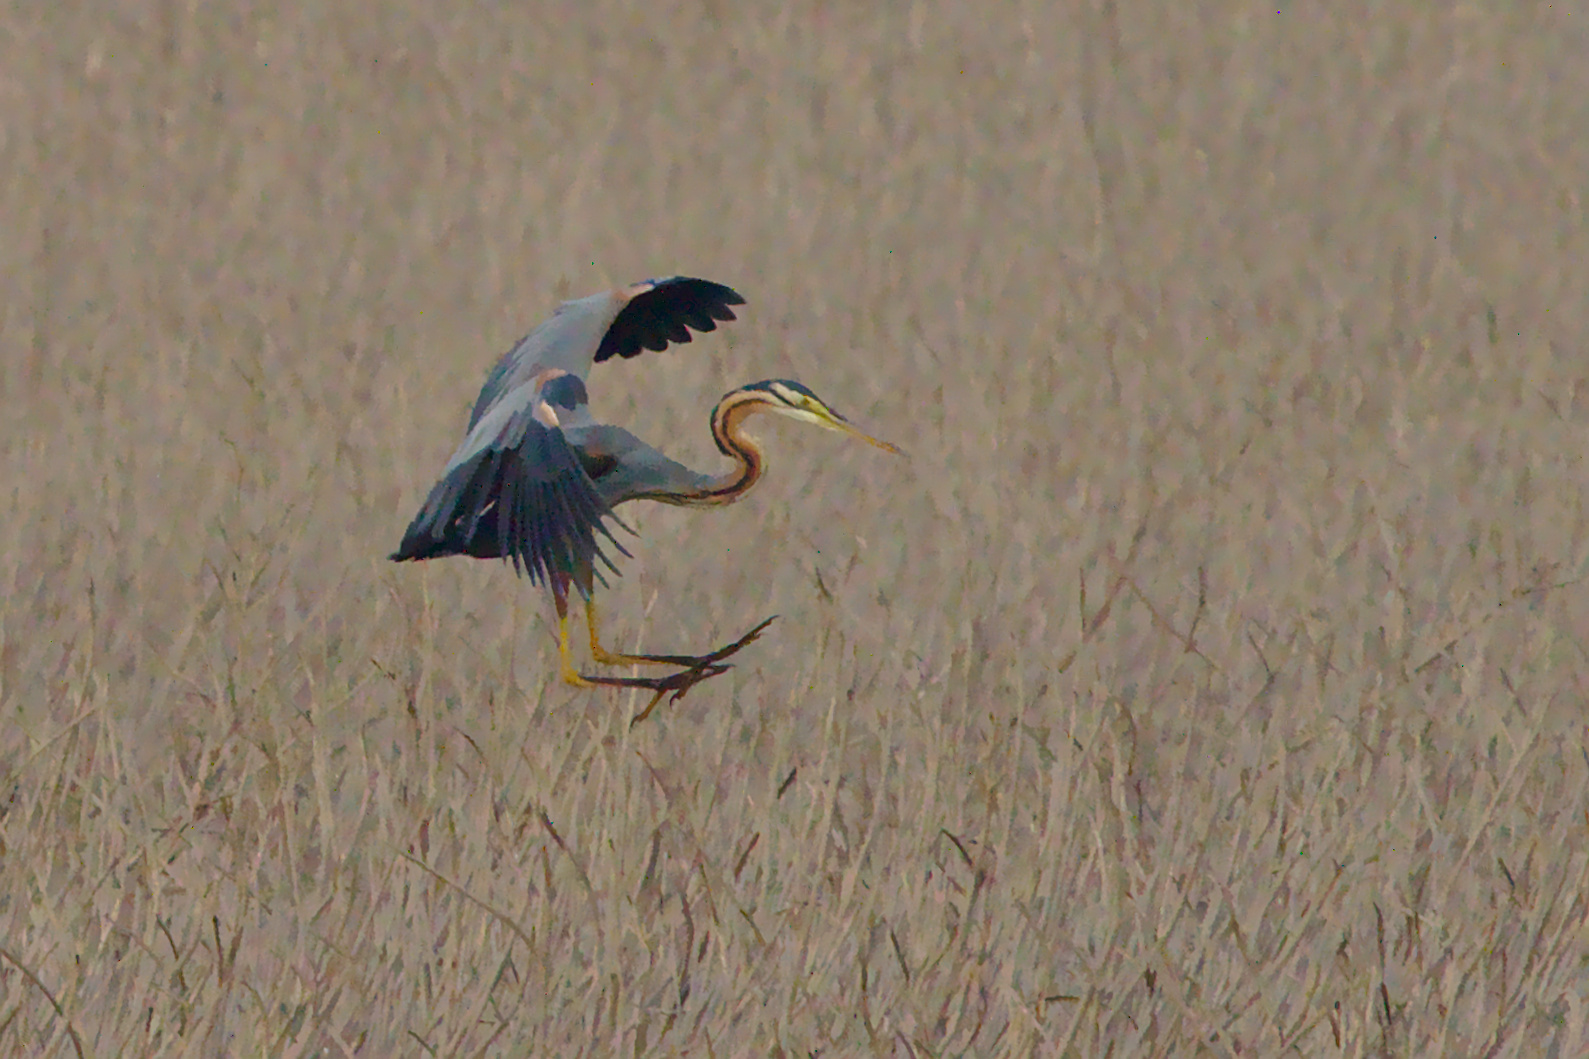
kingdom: Animalia
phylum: Chordata
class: Aves
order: Pelecaniformes
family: Ardeidae
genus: Ardea
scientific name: Ardea purpurea
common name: Purple heron
